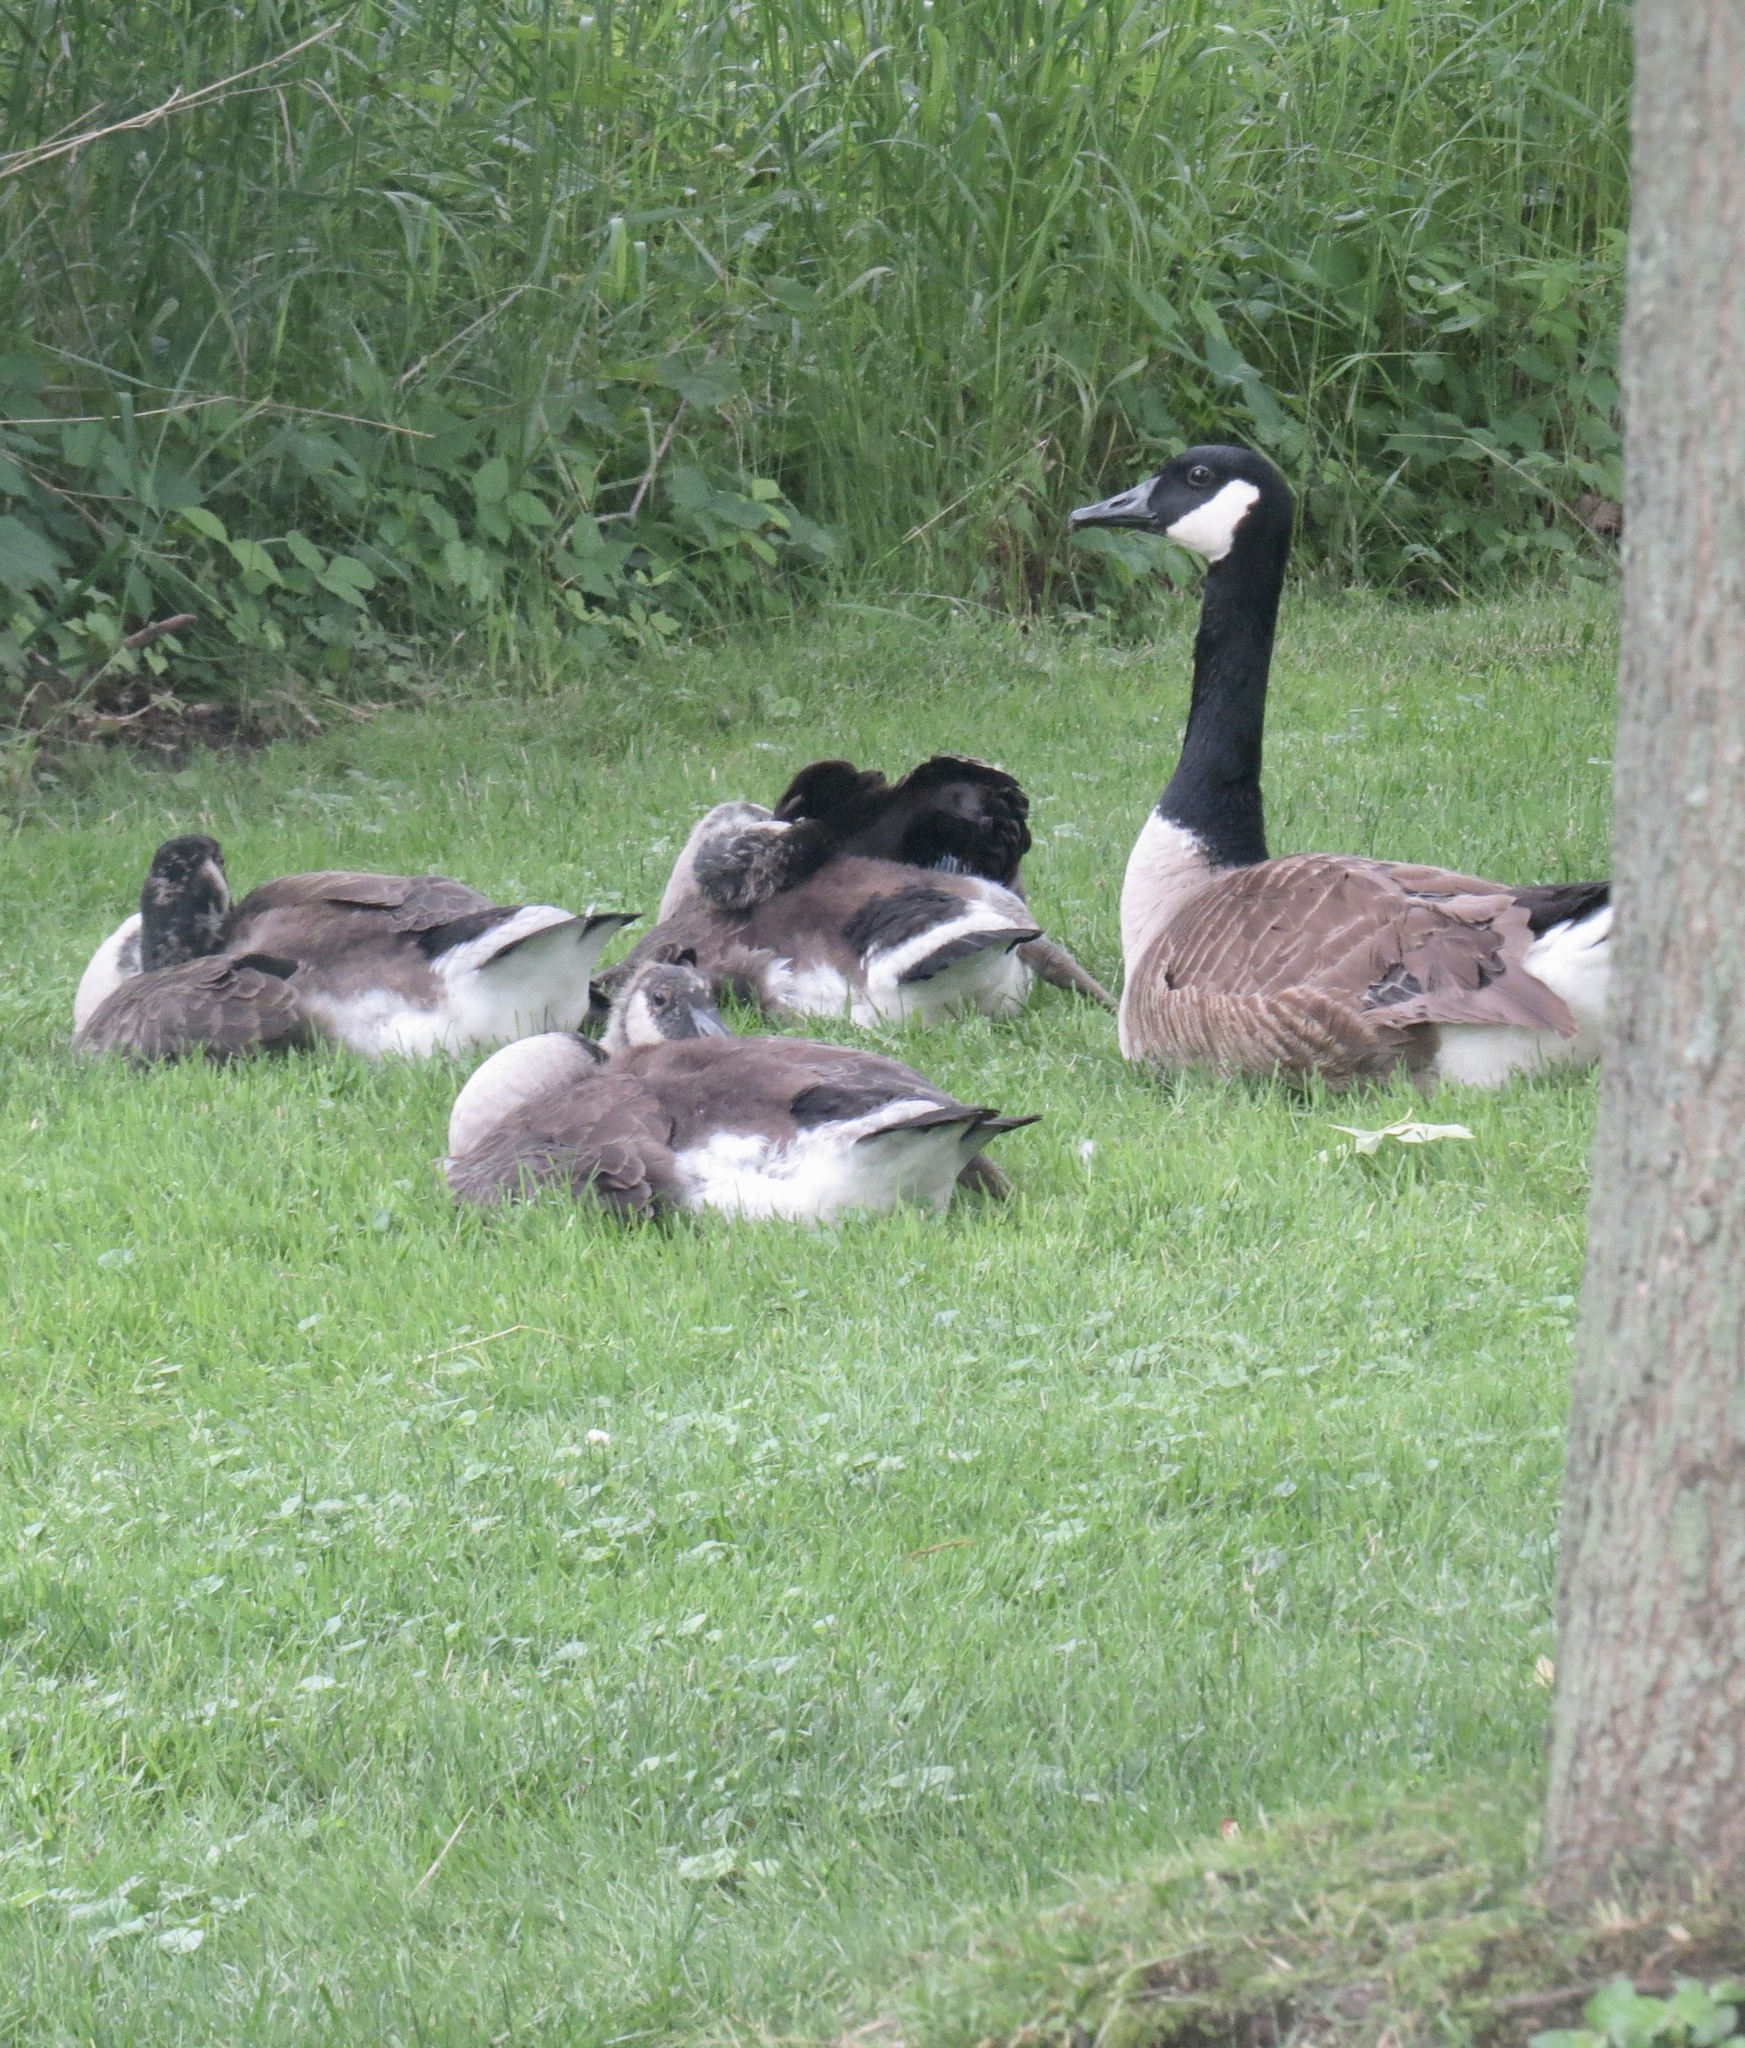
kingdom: Animalia
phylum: Chordata
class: Aves
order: Anseriformes
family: Anatidae
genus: Branta
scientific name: Branta canadensis
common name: Canada goose
